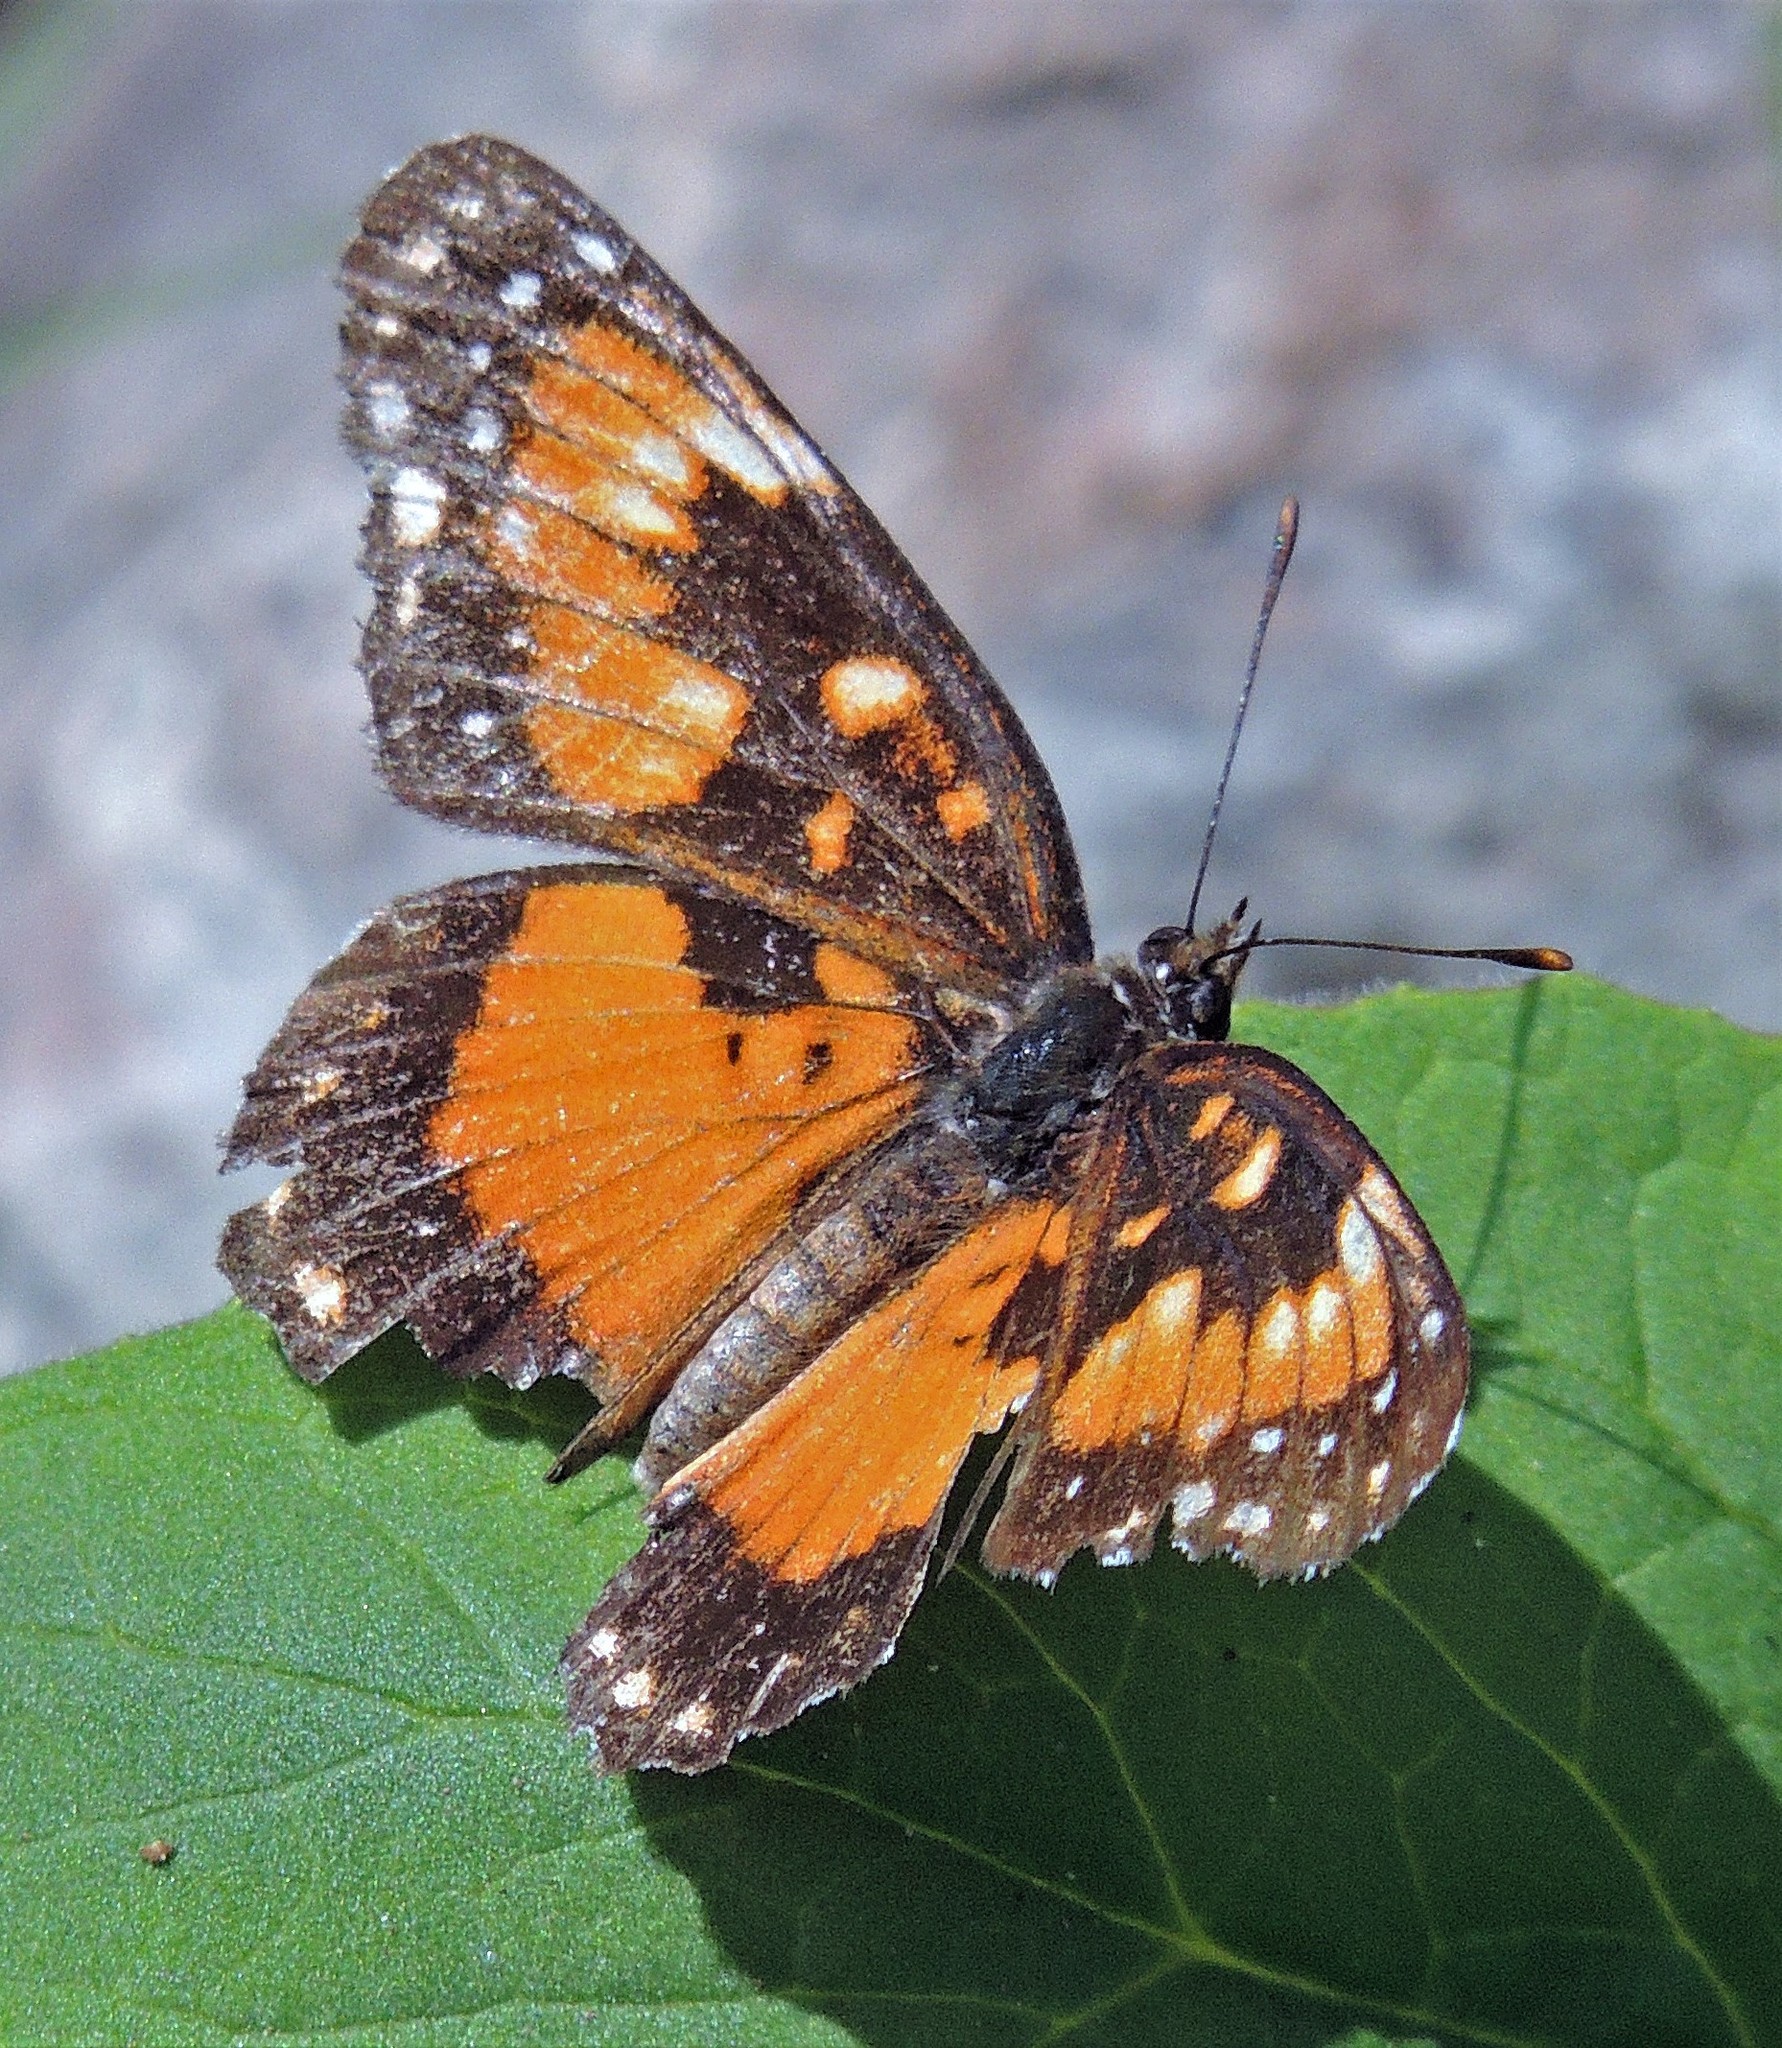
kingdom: Animalia
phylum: Arthropoda
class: Insecta
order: Lepidoptera
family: Nymphalidae
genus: Chlosyne
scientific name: Chlosyne lacinia
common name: Bordered patch
